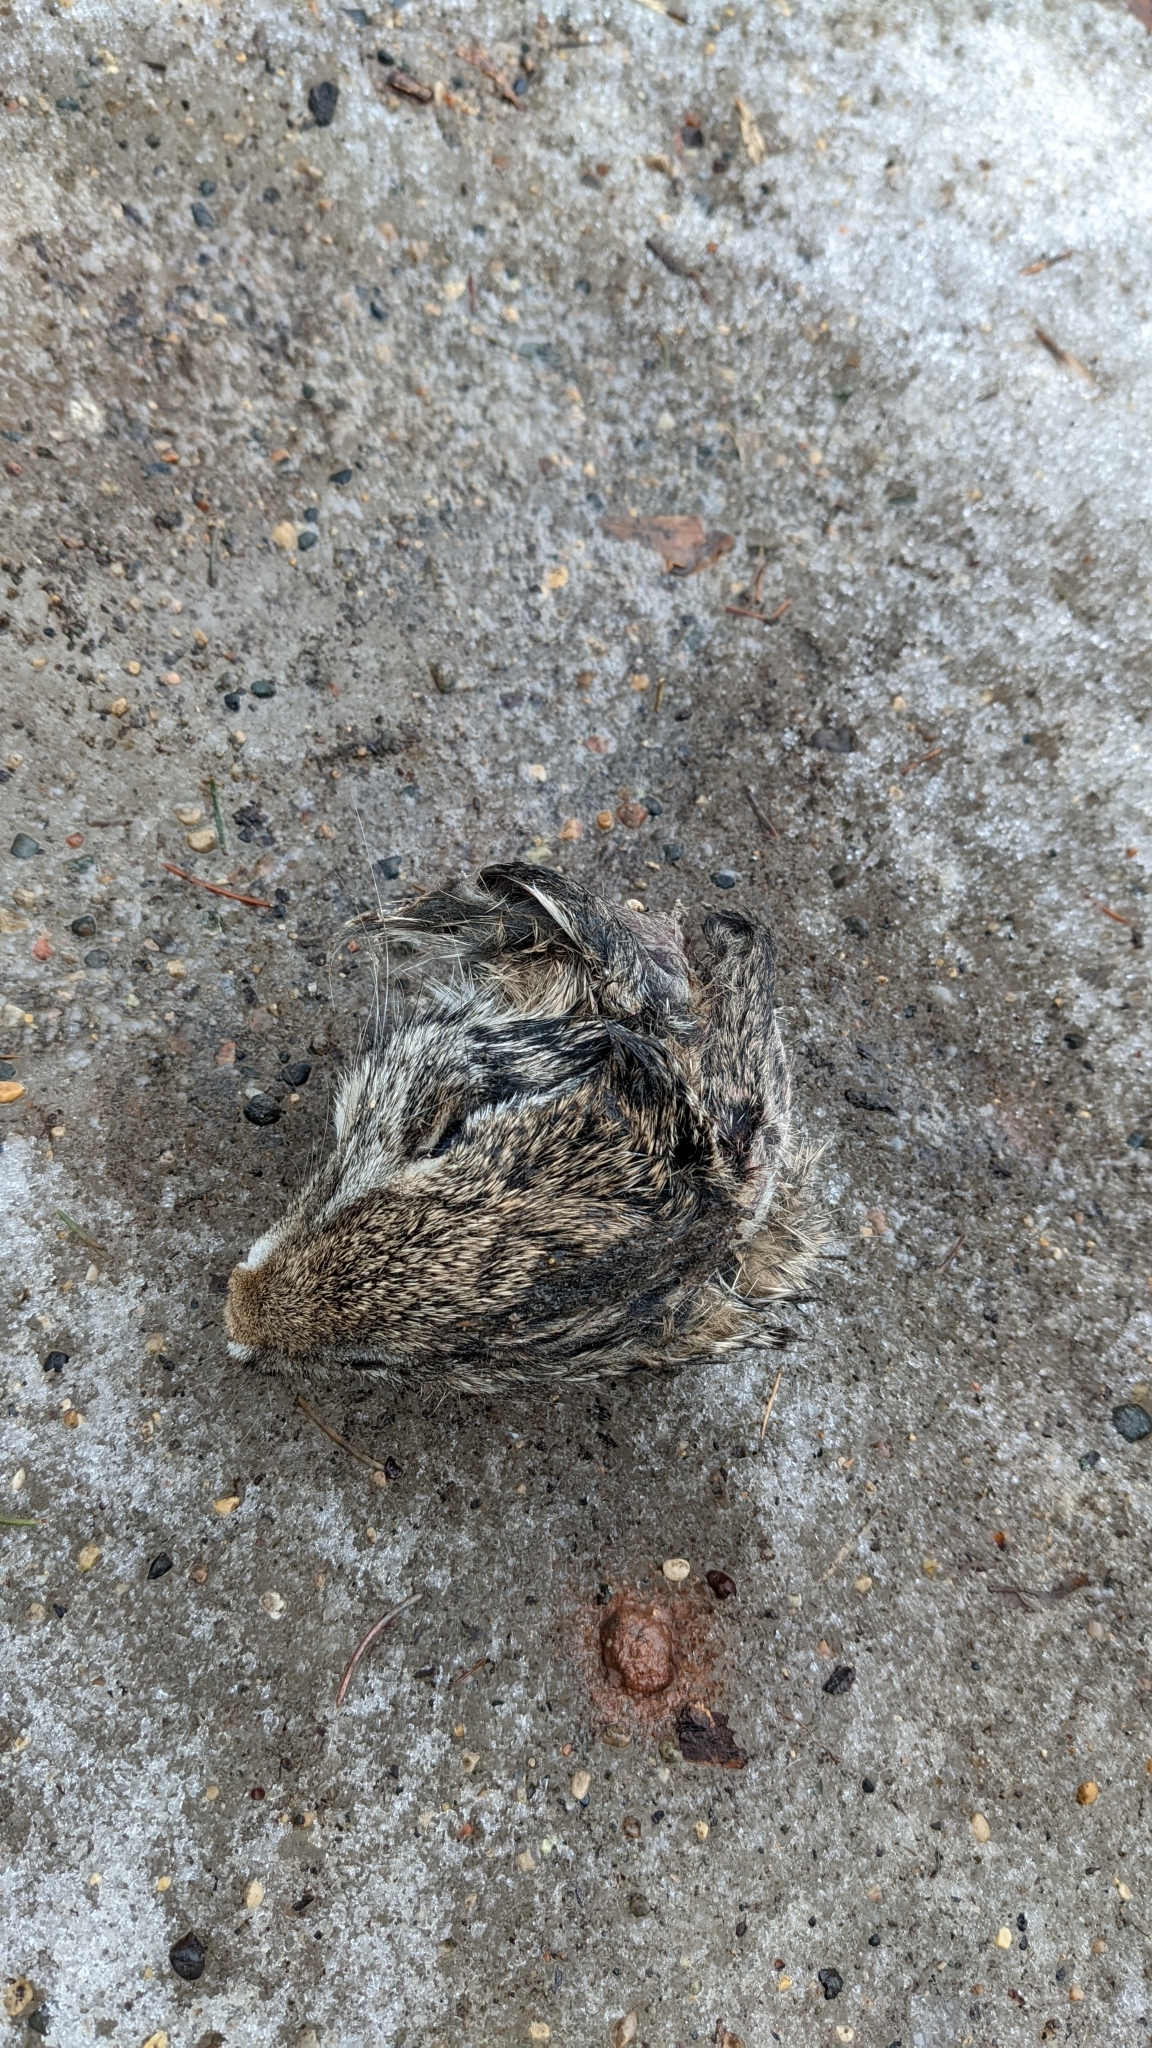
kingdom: Animalia
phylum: Chordata
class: Mammalia
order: Lagomorpha
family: Leporidae
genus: Sylvilagus
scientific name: Sylvilagus floridanus
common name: Eastern cottontail
